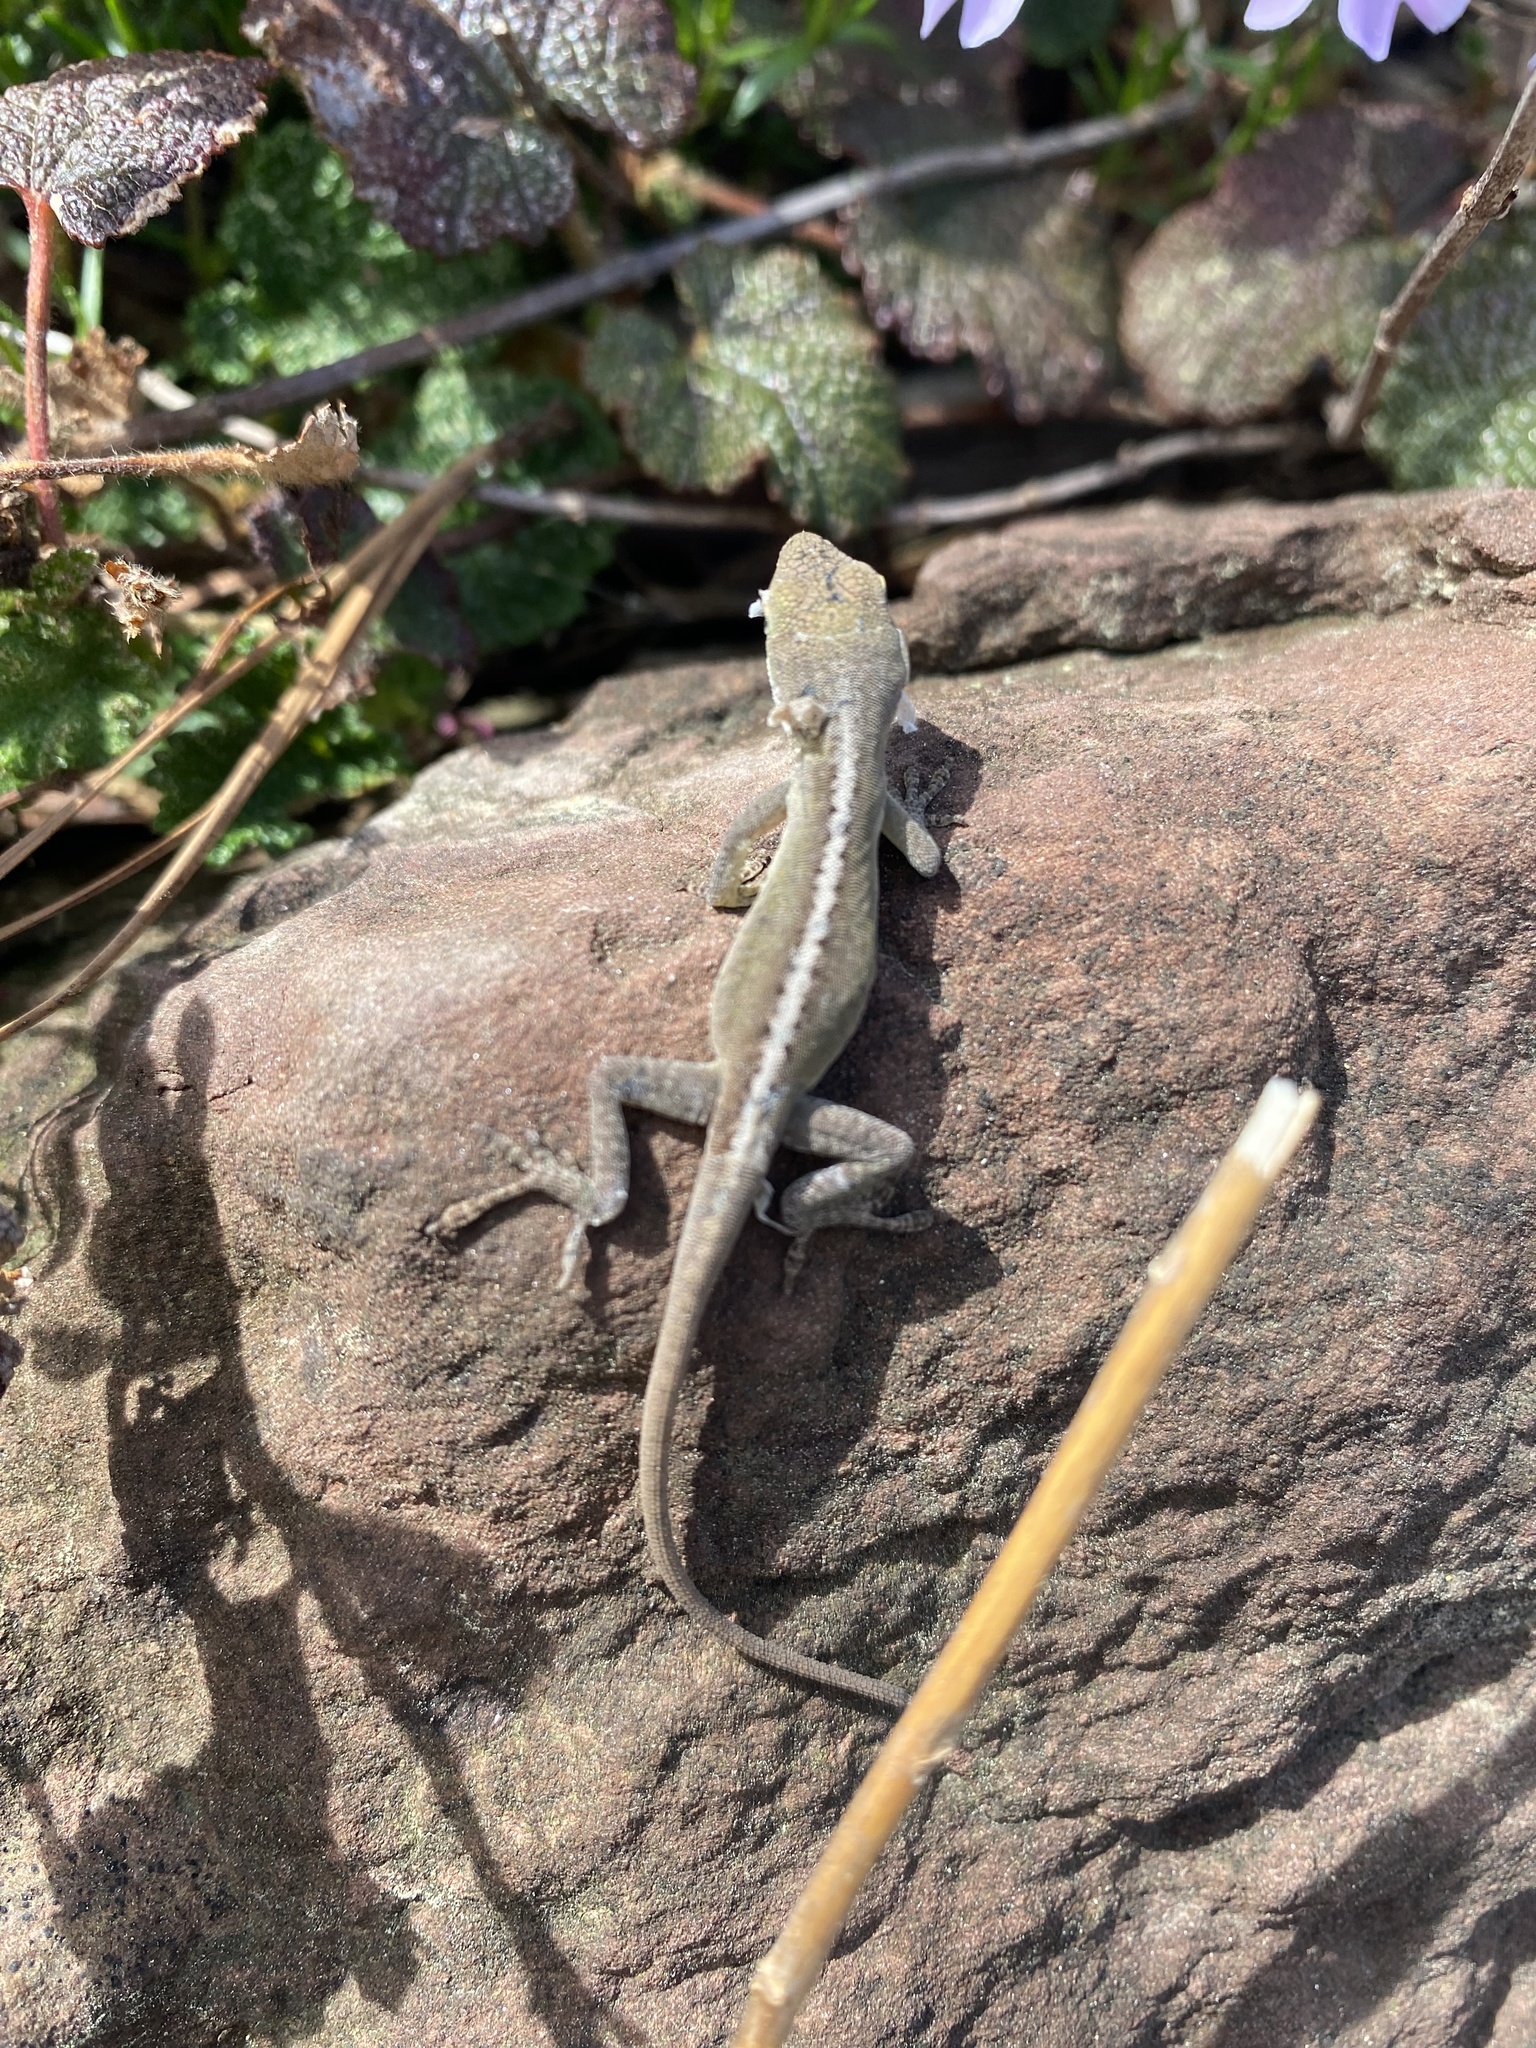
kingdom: Animalia
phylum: Chordata
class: Squamata
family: Dactyloidae
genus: Anolis
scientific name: Anolis carolinensis
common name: Green anole
